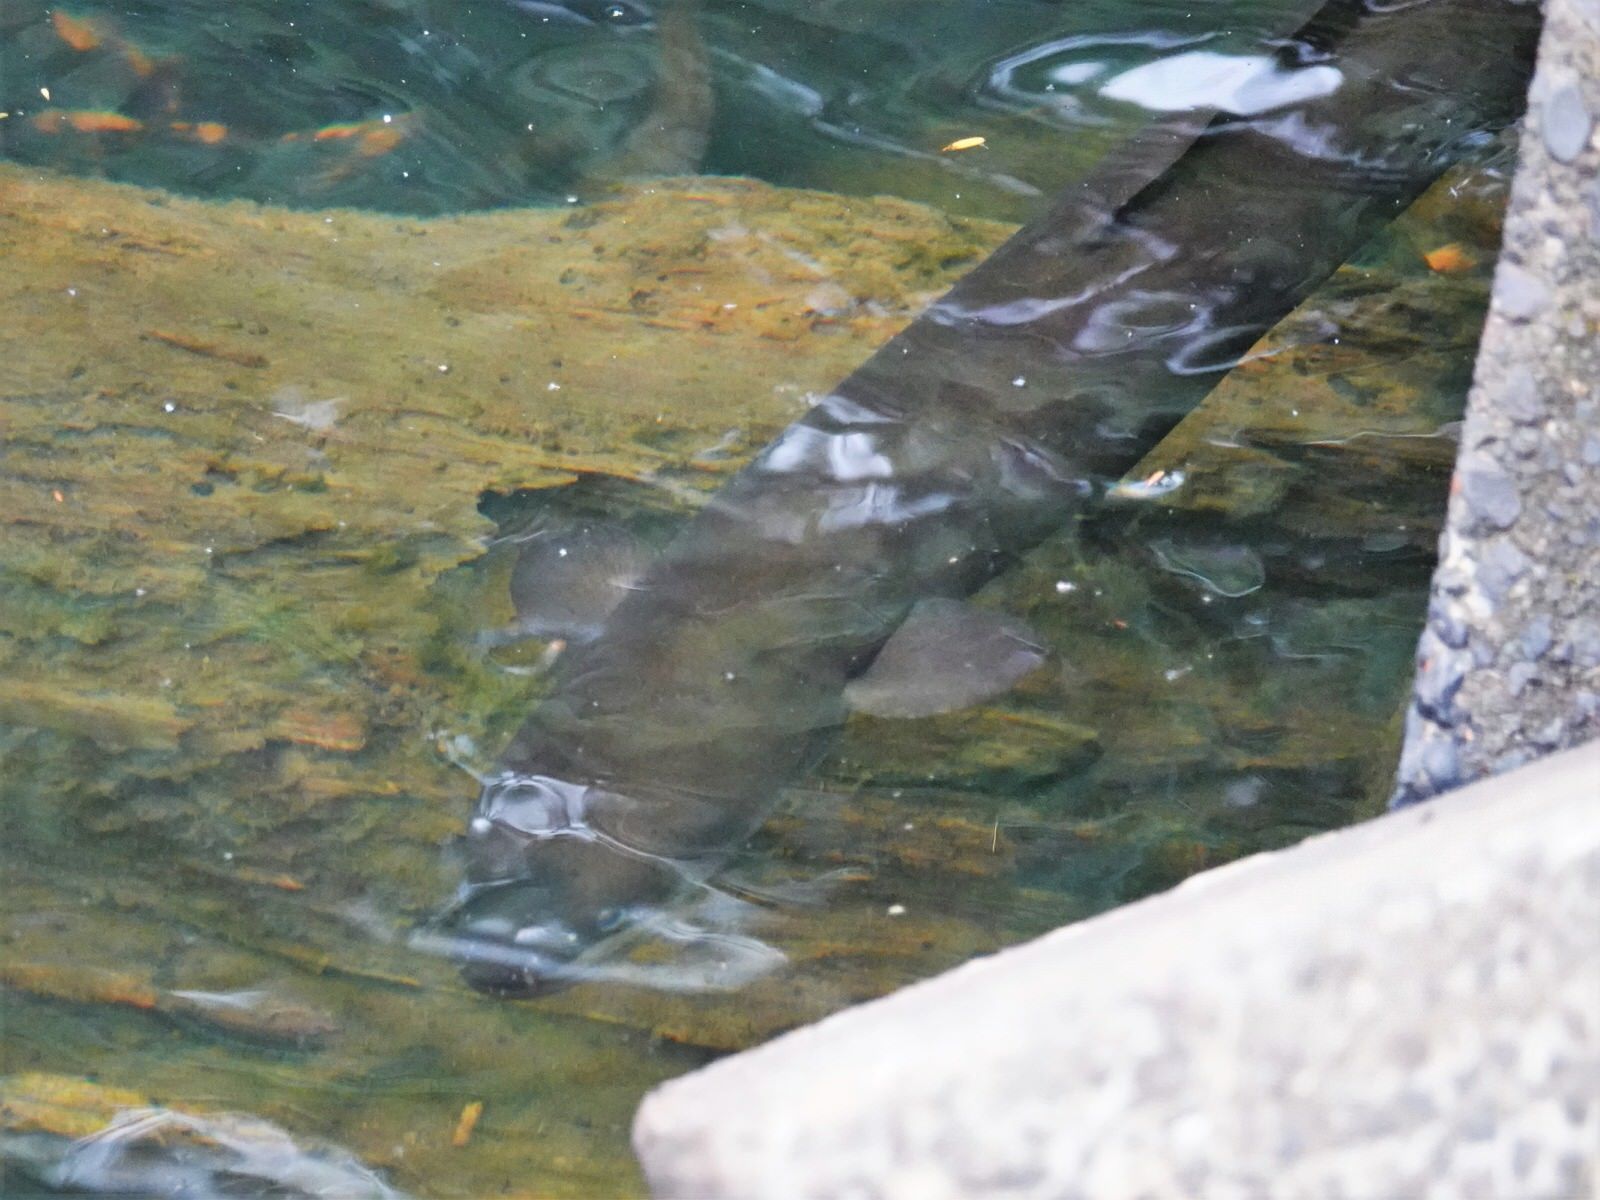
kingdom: Animalia
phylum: Chordata
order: Anguilliformes
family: Anguillidae
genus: Anguilla
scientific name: Anguilla dieffenbachii
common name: New zealand longfin eel
